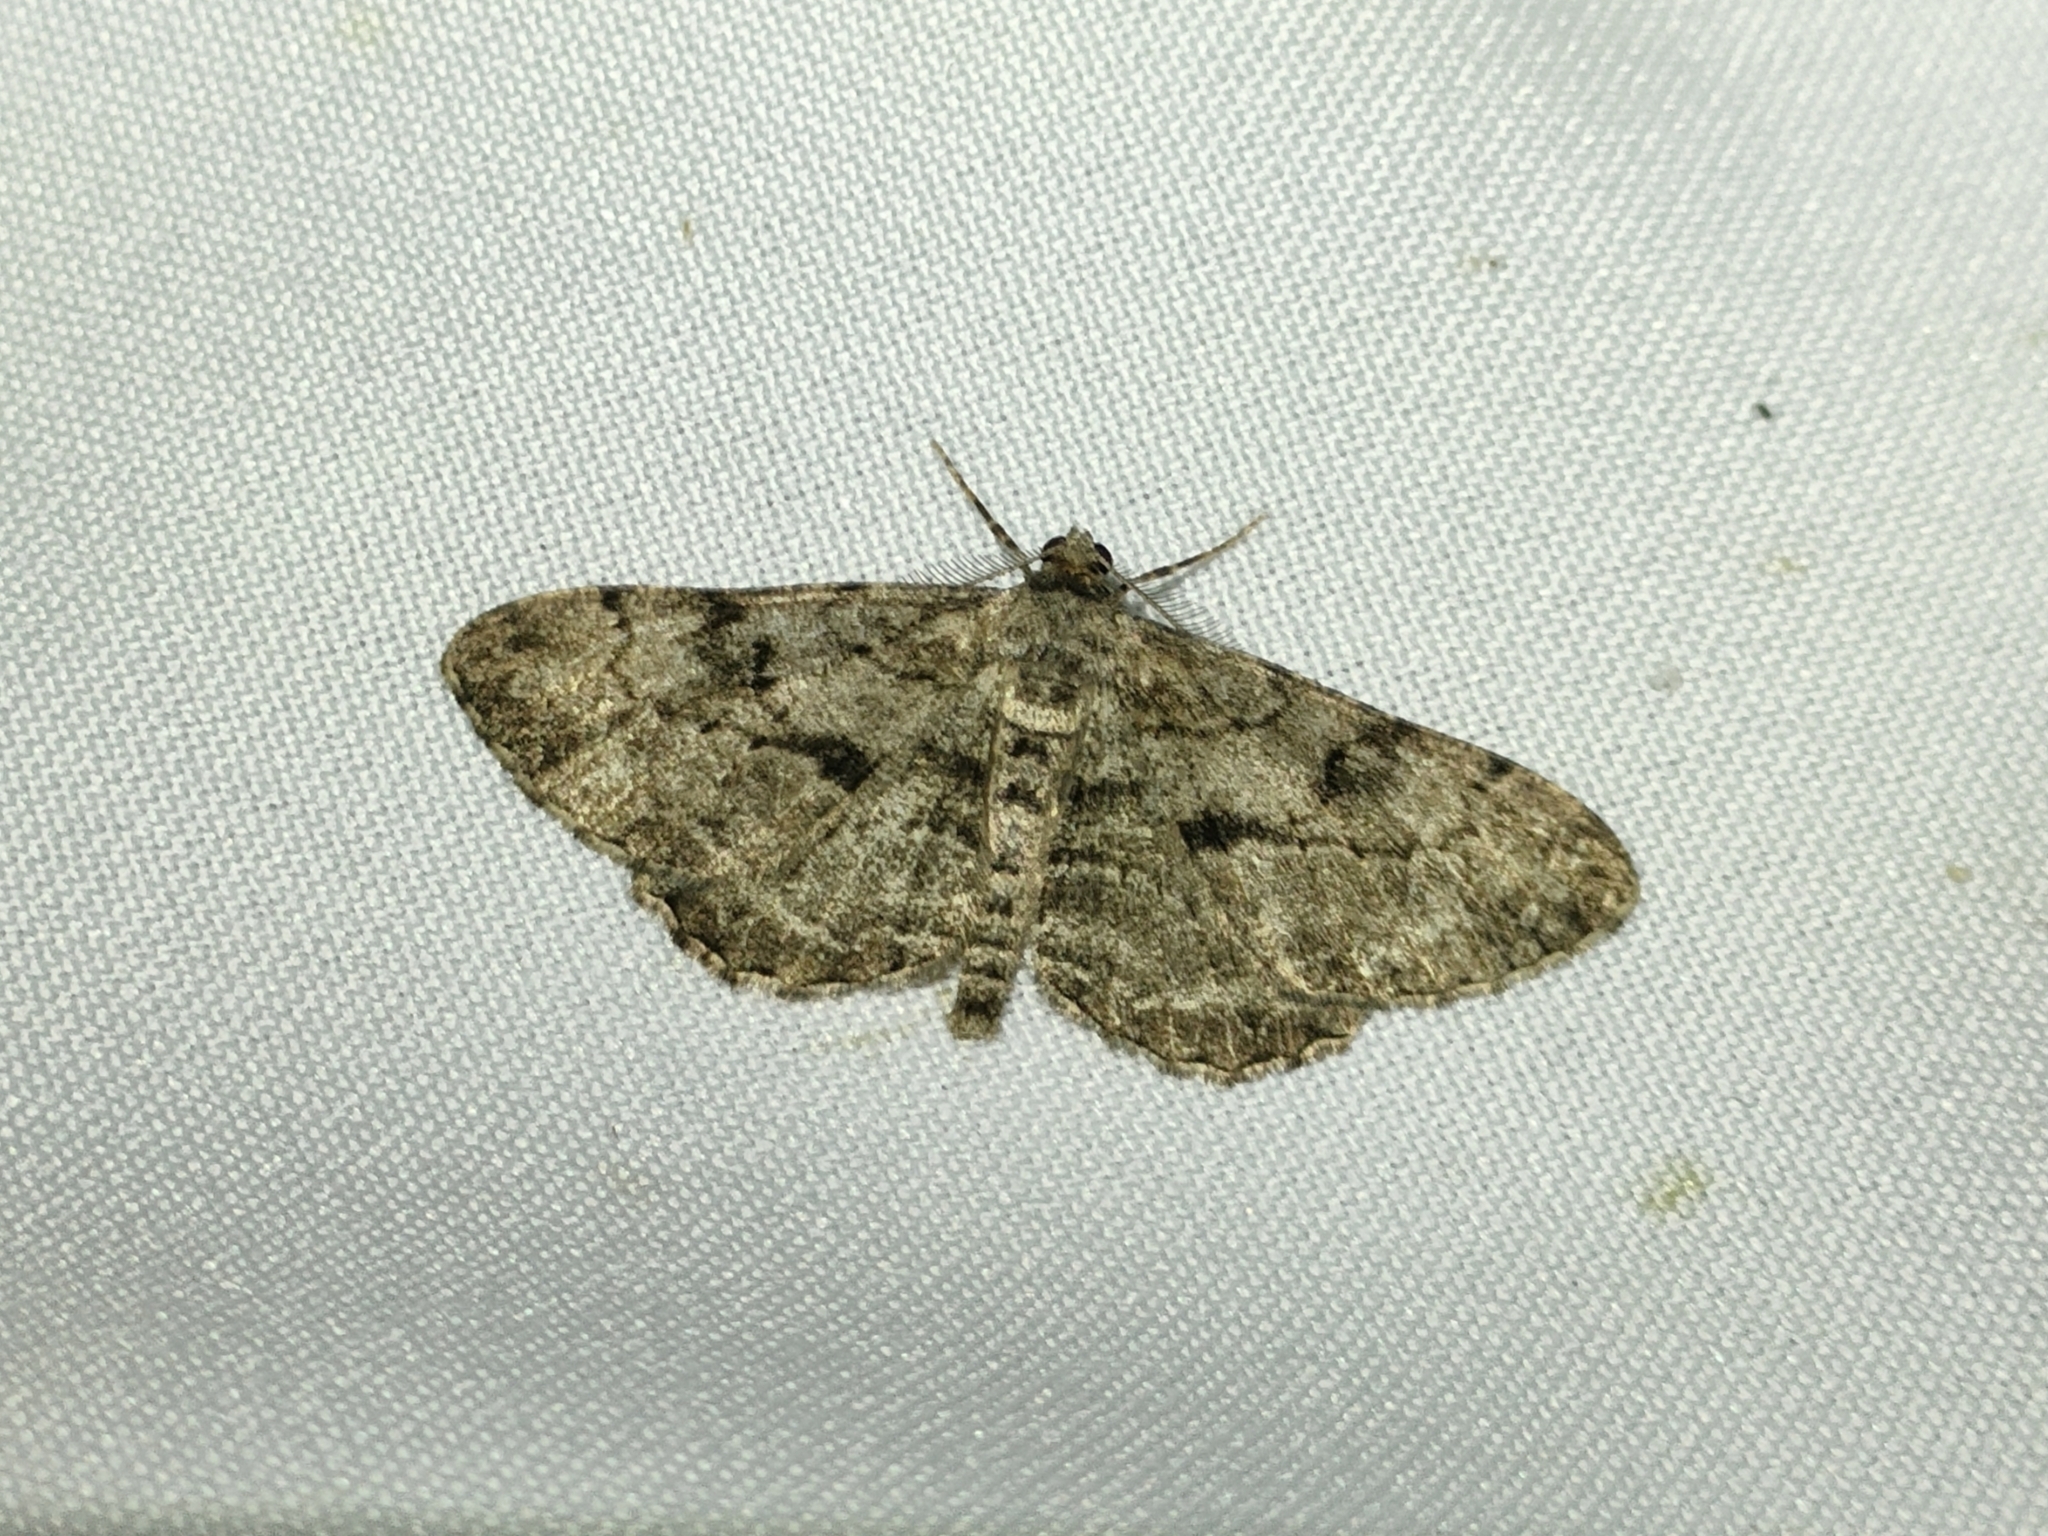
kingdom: Animalia
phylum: Arthropoda
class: Insecta
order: Lepidoptera
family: Geometridae
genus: Peribatodes
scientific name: Peribatodes rhomboidaria
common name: Willow beauty
